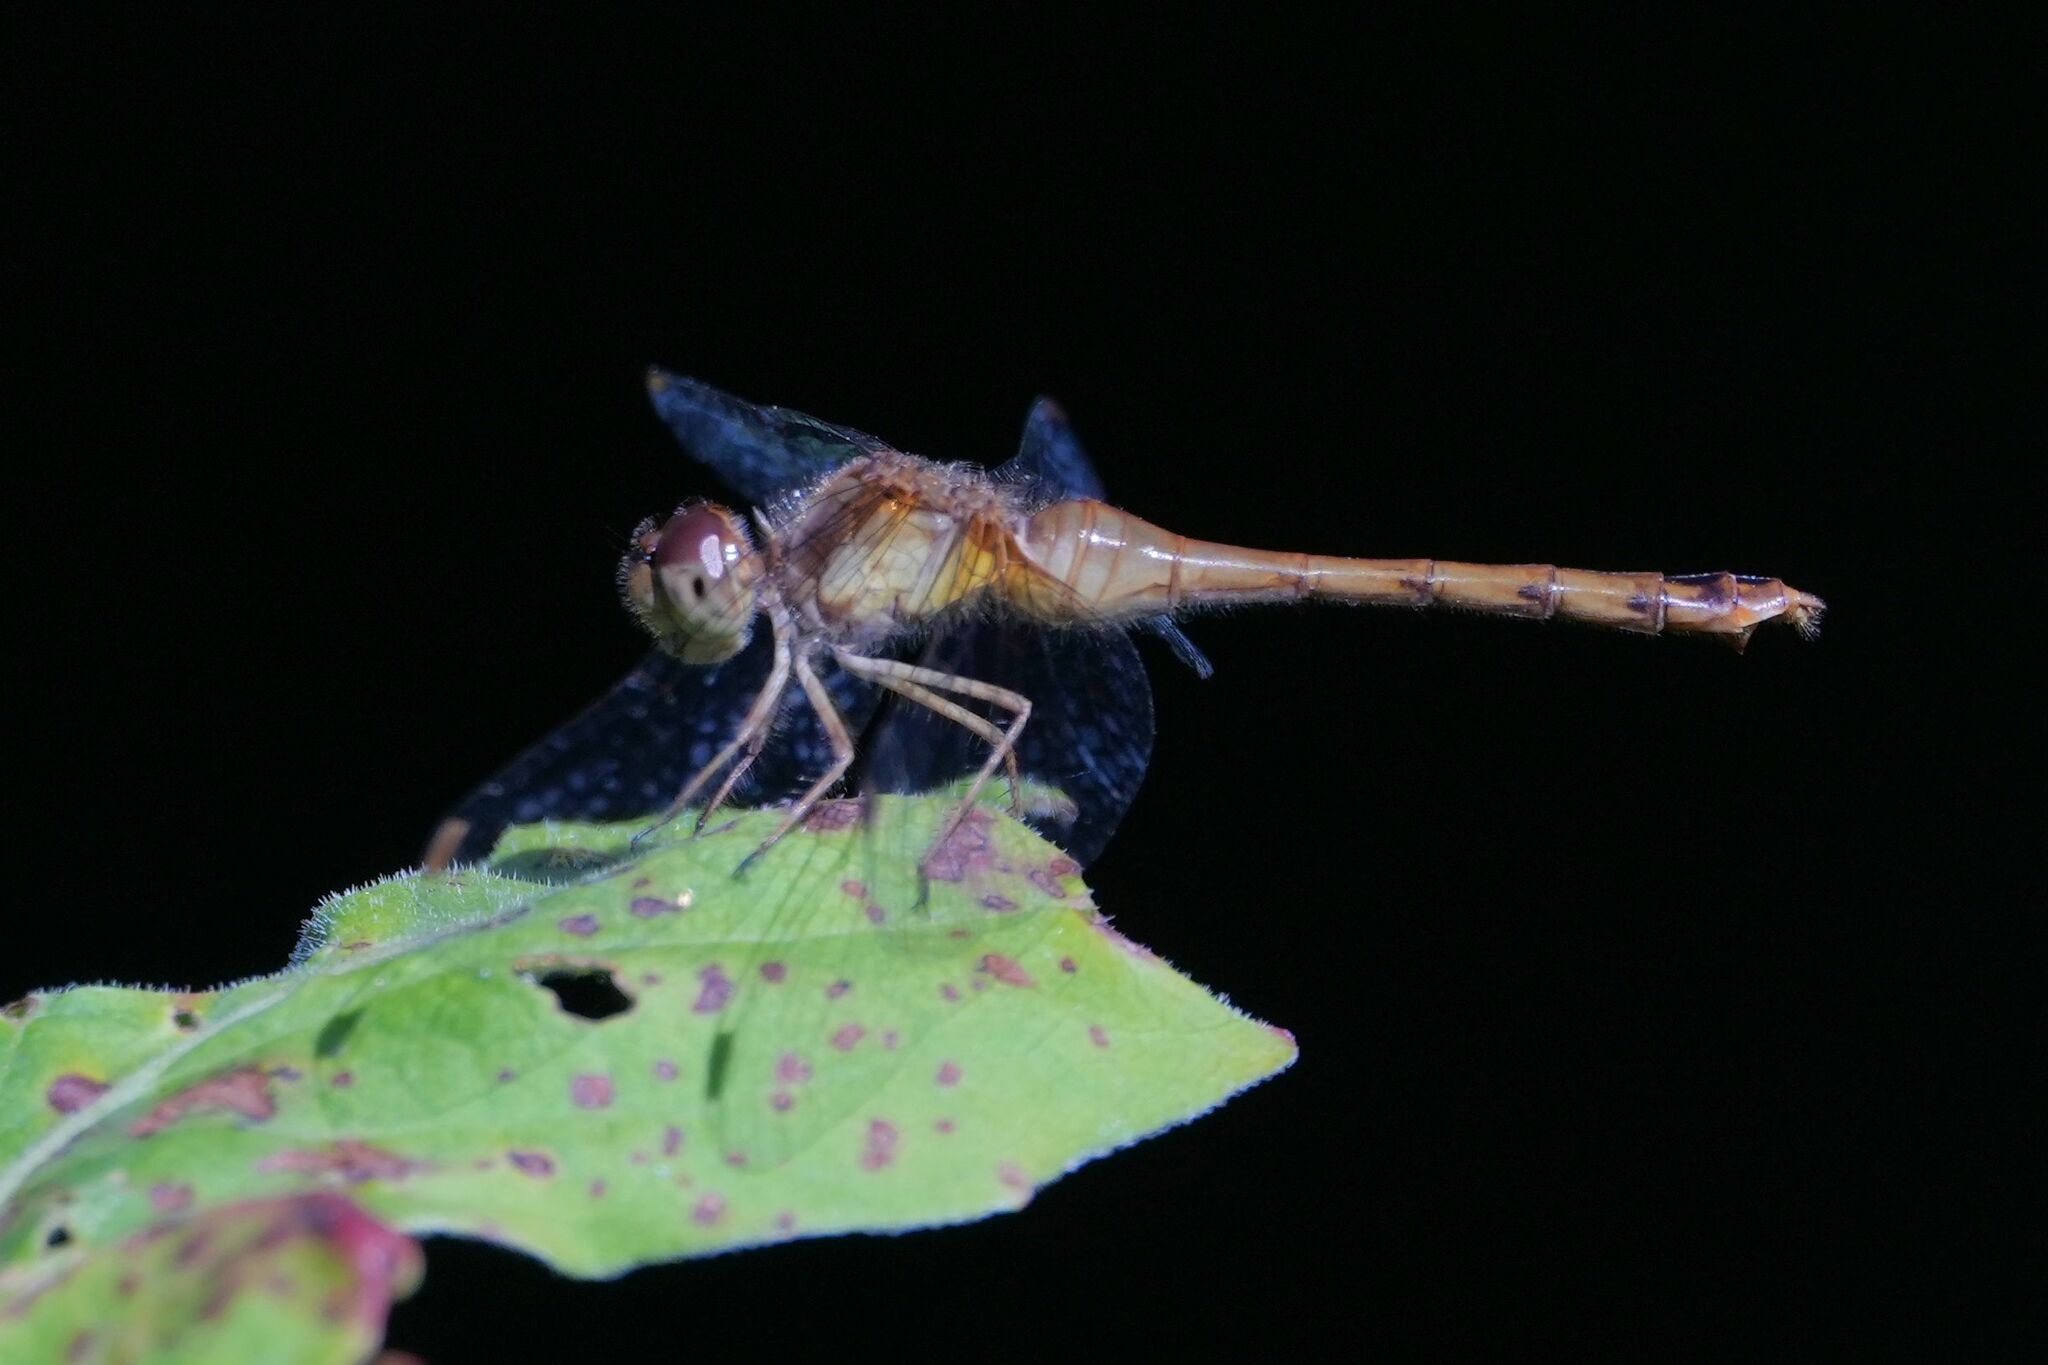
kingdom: Animalia
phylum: Arthropoda
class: Insecta
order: Odonata
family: Libellulidae
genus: Sympetrum
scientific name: Sympetrum vicinum
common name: Autumn meadowhawk
